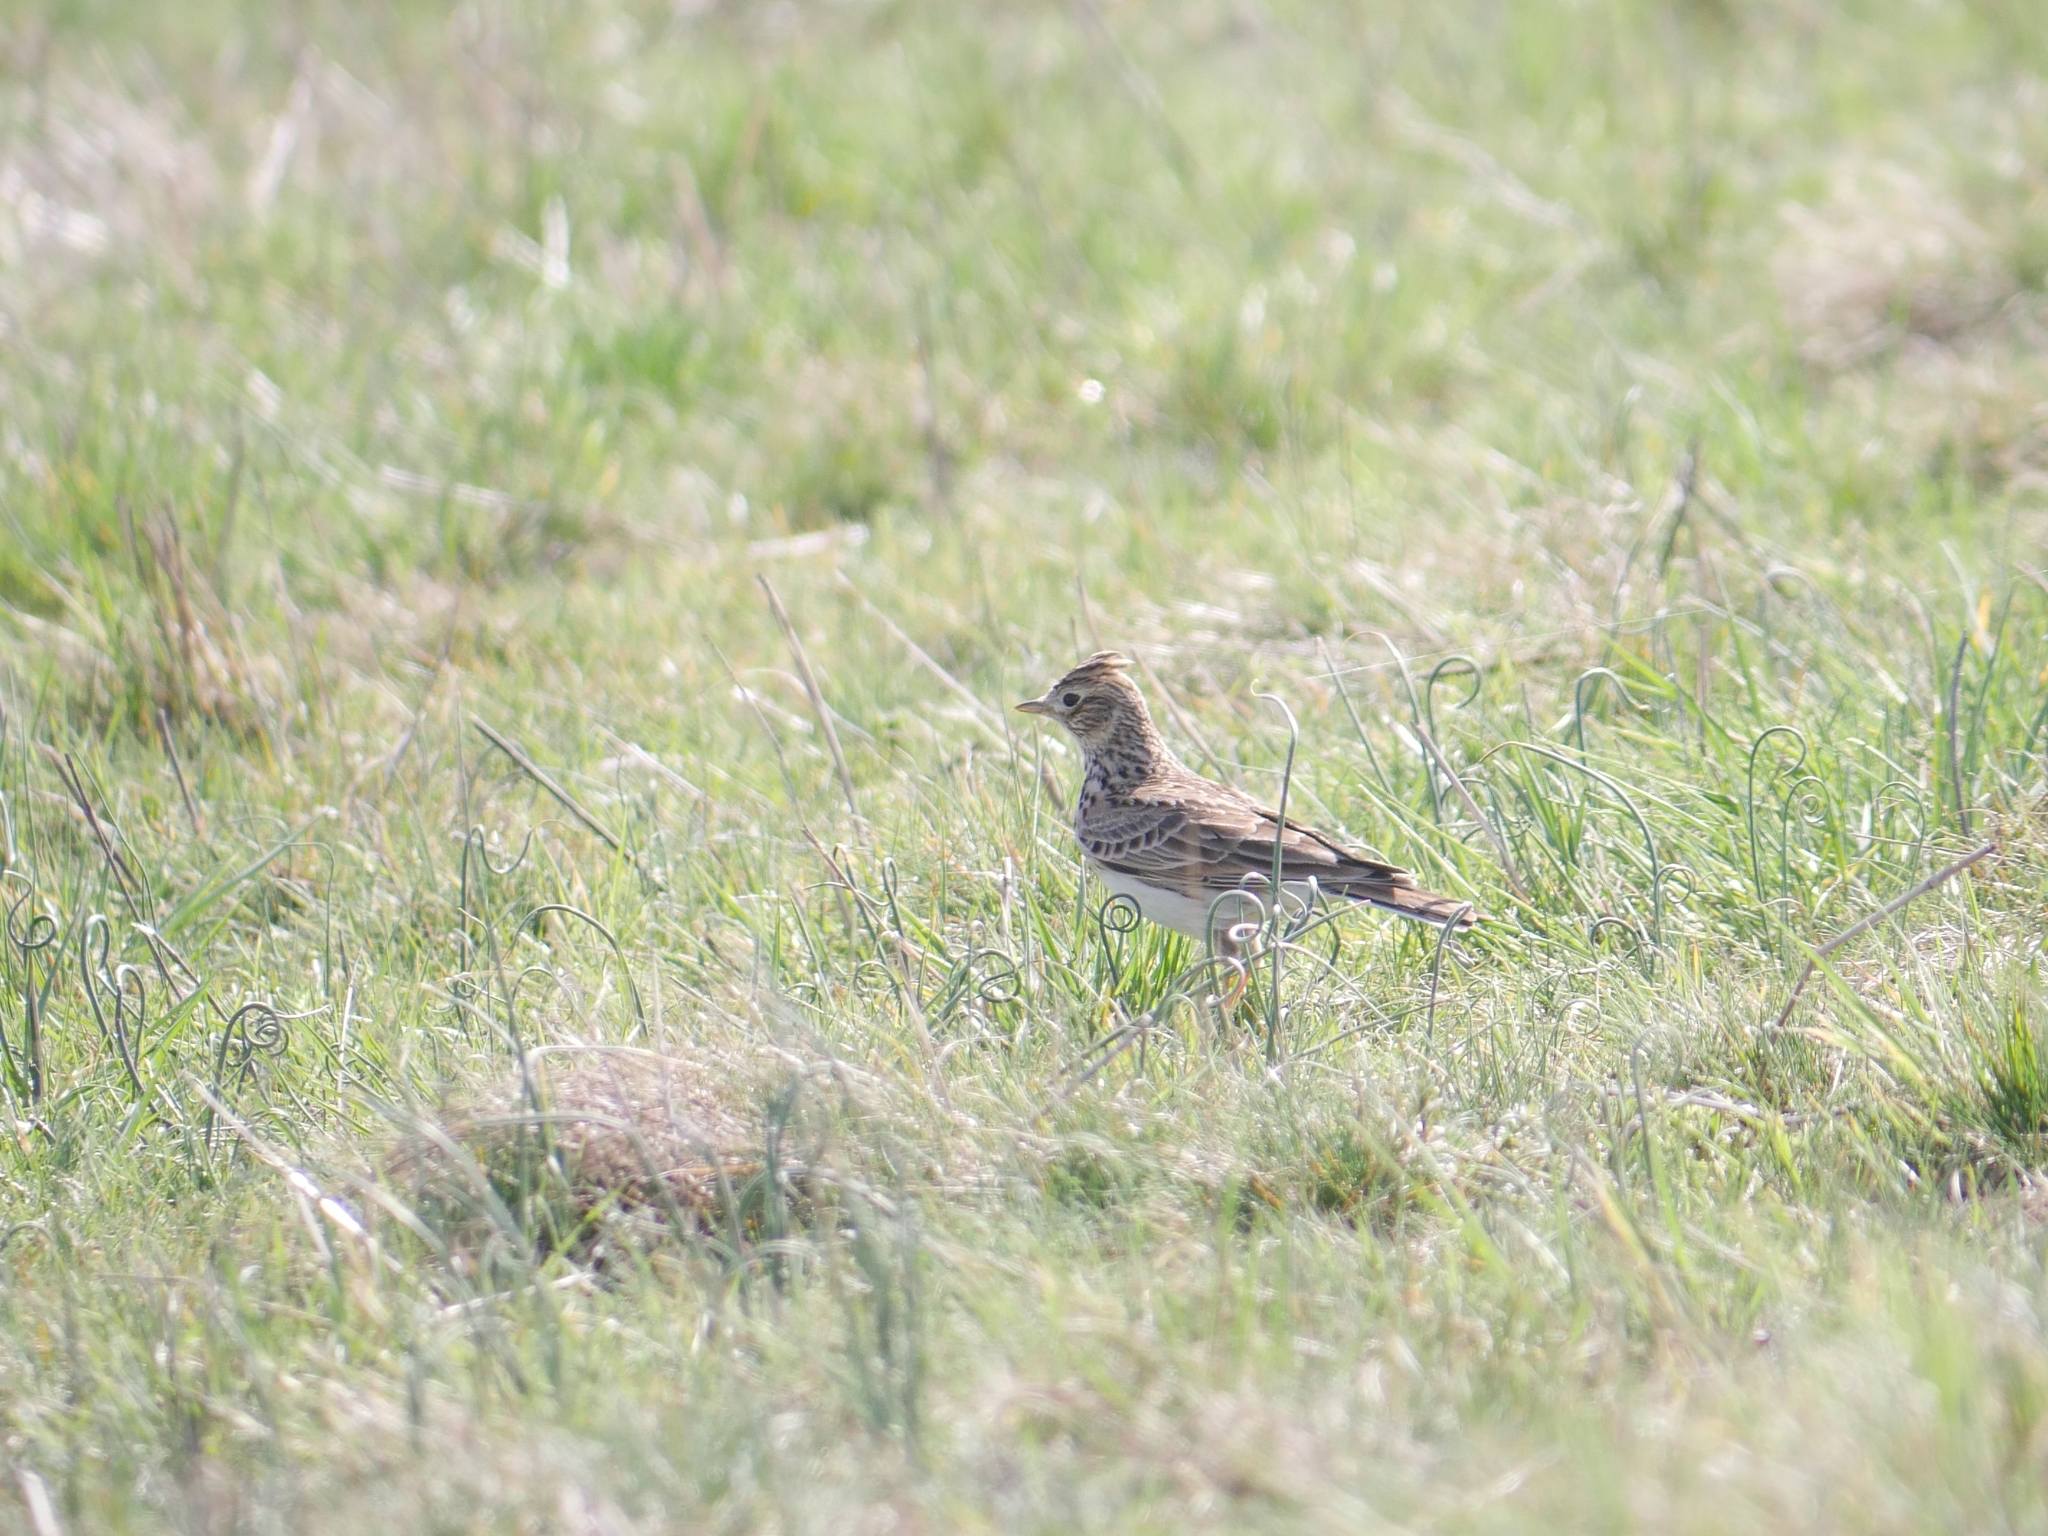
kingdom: Animalia
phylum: Chordata
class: Aves
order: Passeriformes
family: Alaudidae
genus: Alauda
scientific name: Alauda arvensis
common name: Eurasian skylark
